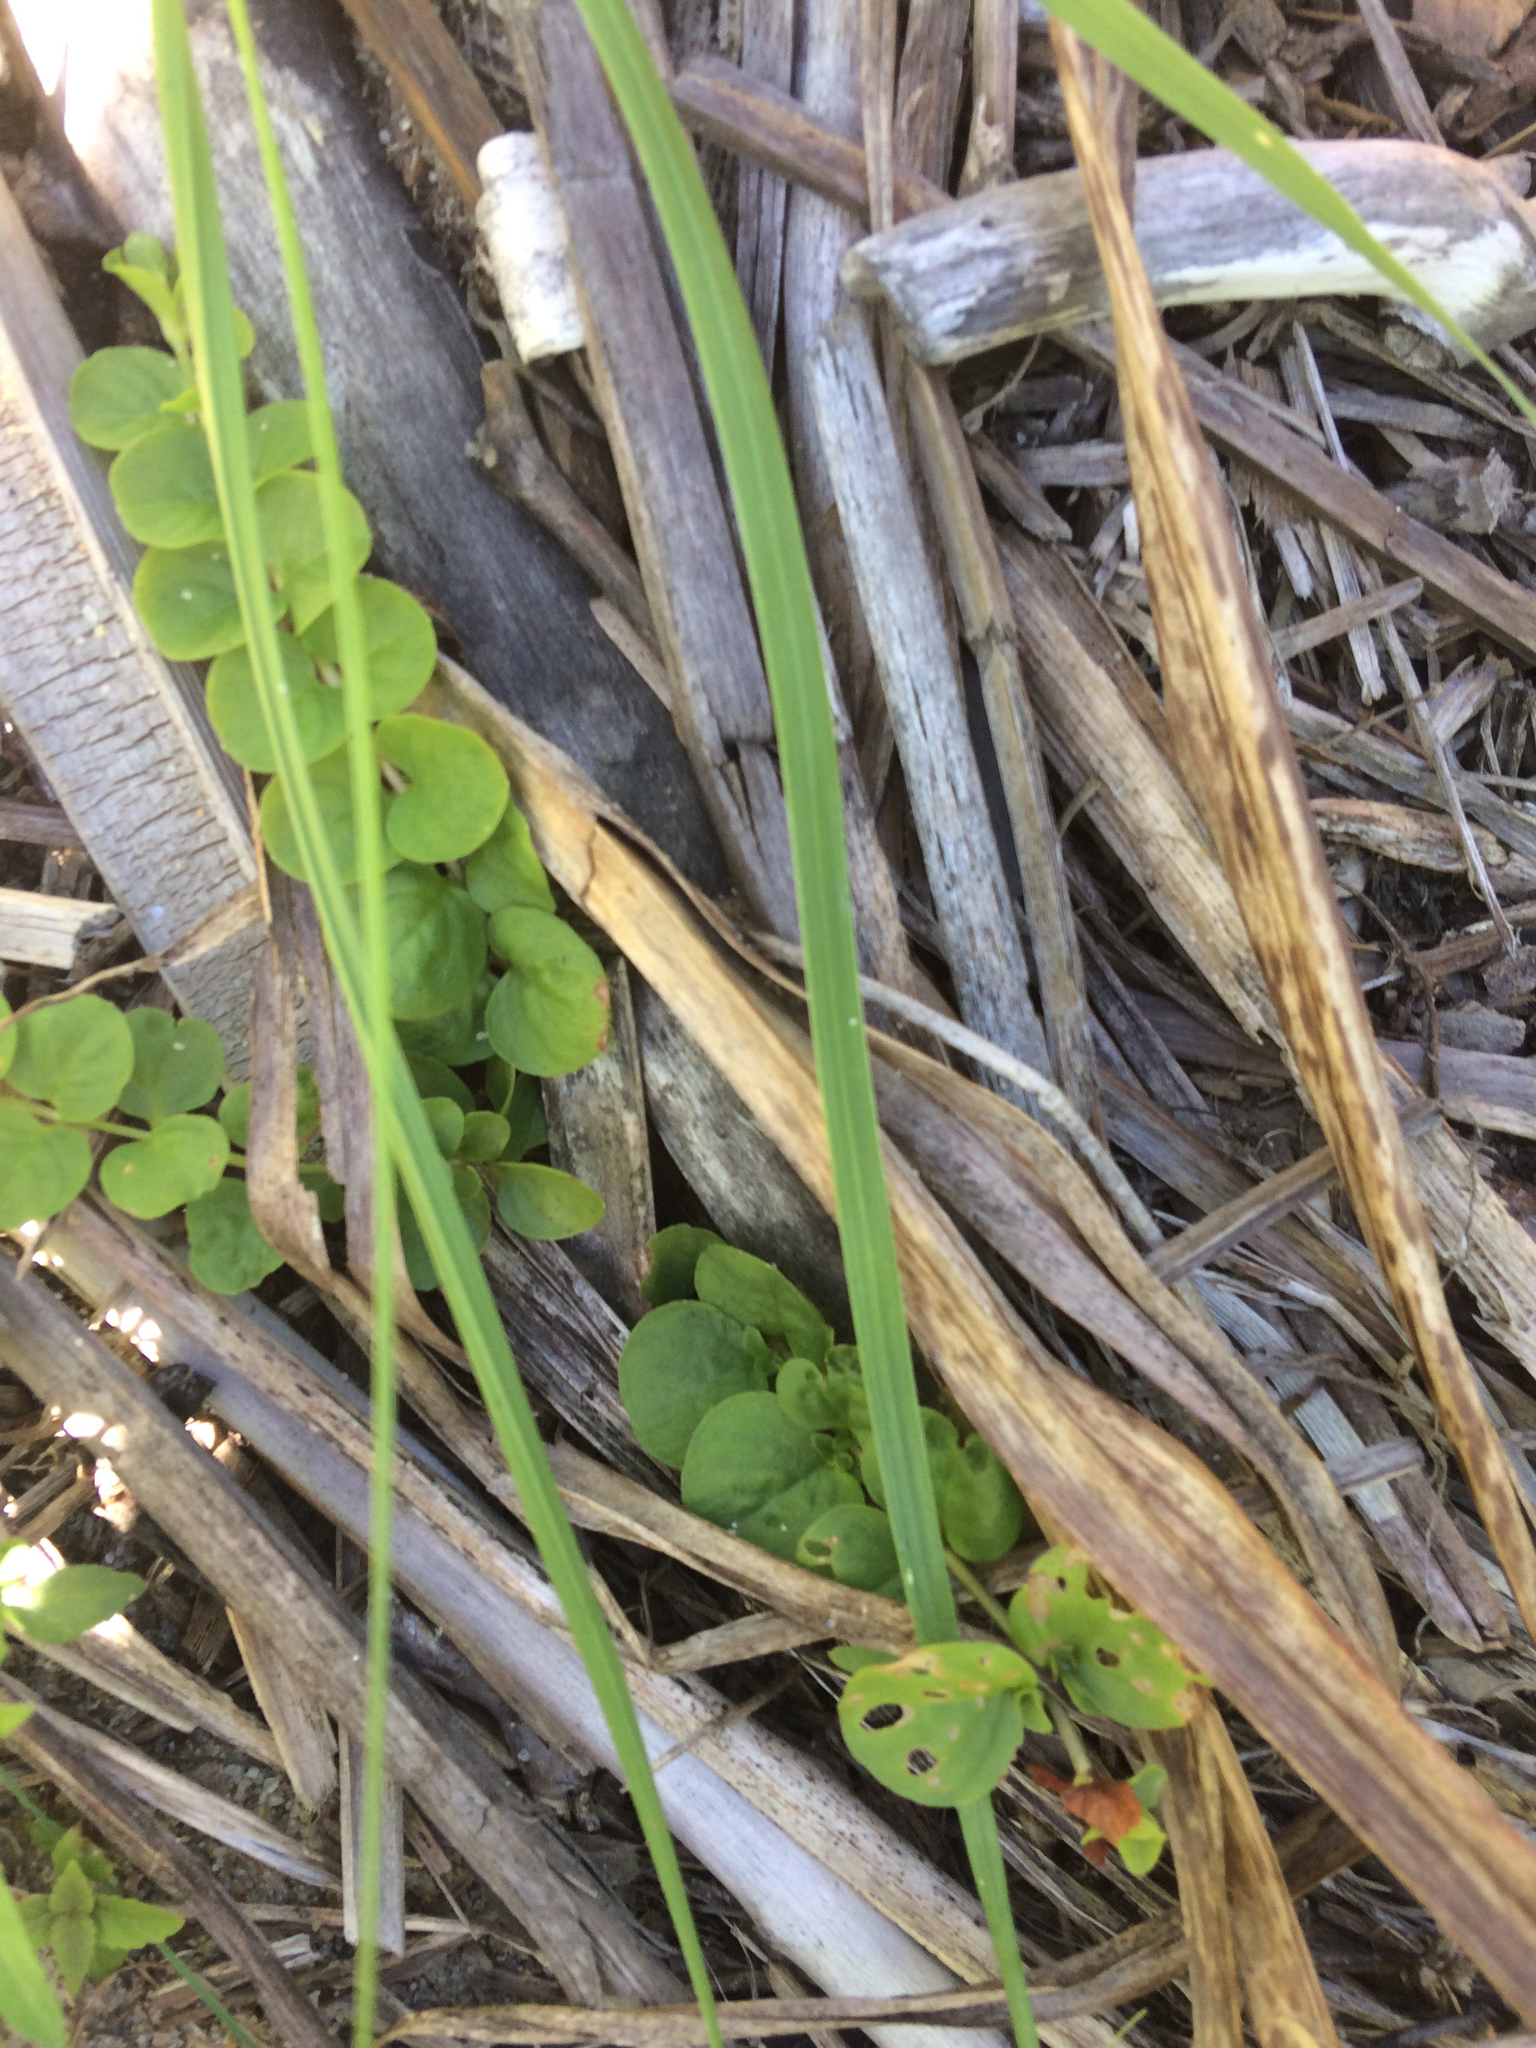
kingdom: Plantae
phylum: Tracheophyta
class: Magnoliopsida
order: Ericales
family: Primulaceae
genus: Lysimachia
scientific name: Lysimachia nummularia
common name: Moneywort
